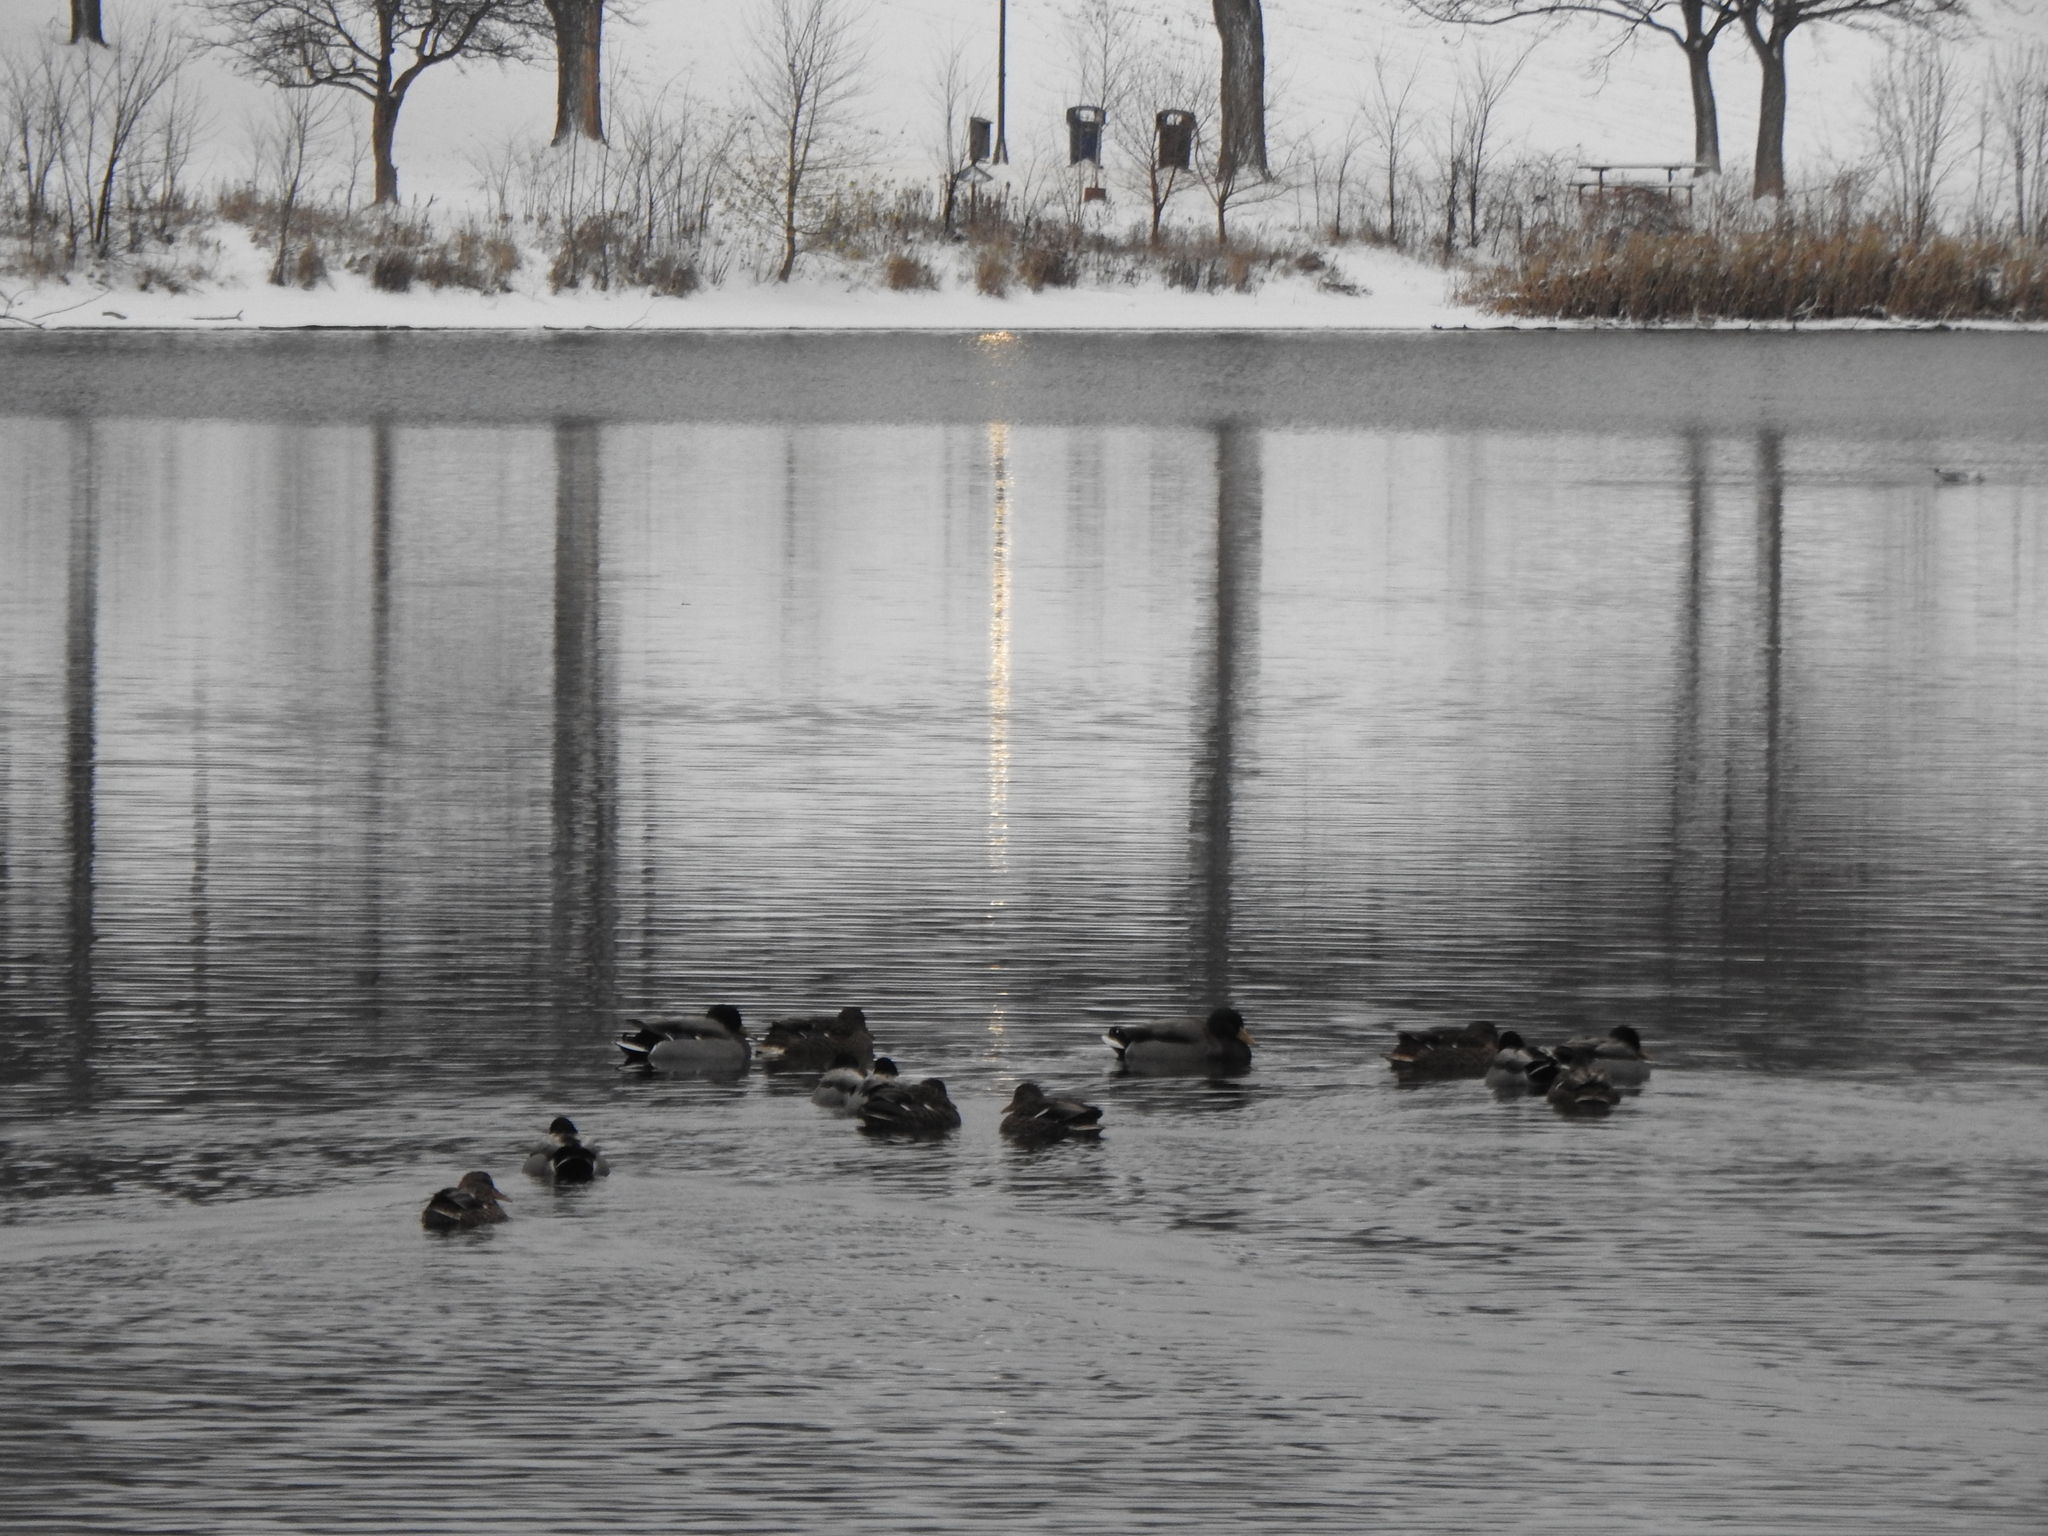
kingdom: Animalia
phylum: Chordata
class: Aves
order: Anseriformes
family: Anatidae
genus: Anas
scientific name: Anas platyrhynchos
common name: Mallard
